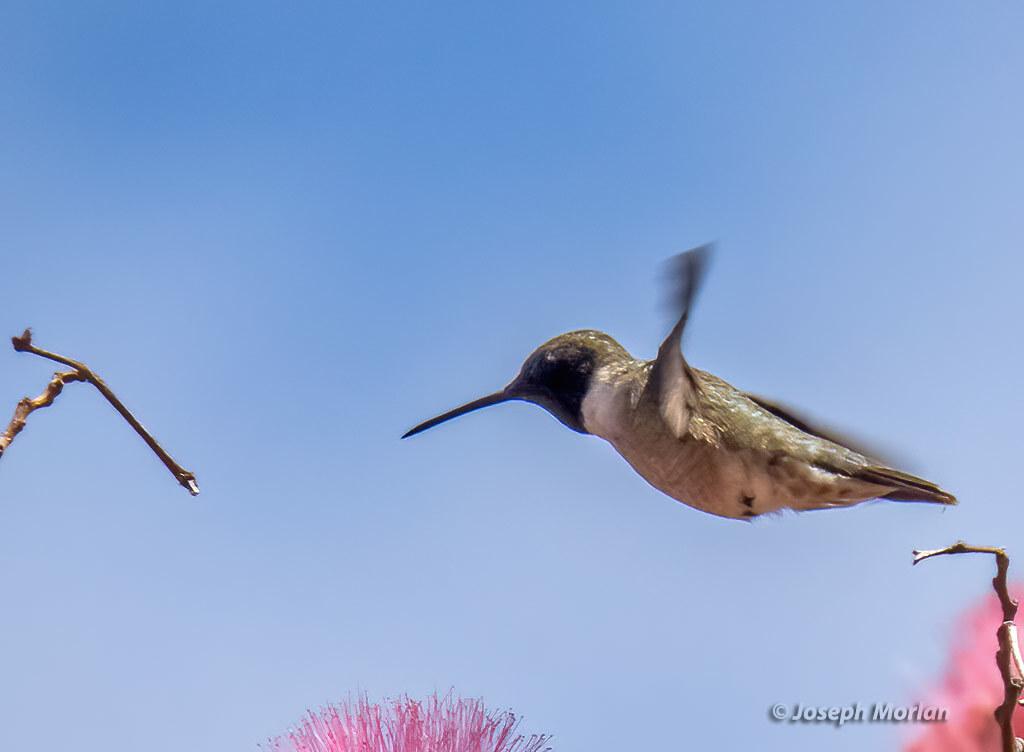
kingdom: Animalia
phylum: Chordata
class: Aves
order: Apodiformes
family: Trochilidae
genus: Archilochus
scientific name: Archilochus alexandri
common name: Black-chinned hummingbird
